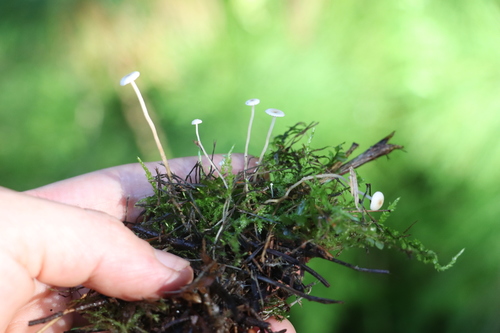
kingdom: Fungi
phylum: Basidiomycota
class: Agaricomycetes
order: Agaricales
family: Tricholomataceae
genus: Collybia
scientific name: Collybia cirrhata
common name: Piggyback shanklet
